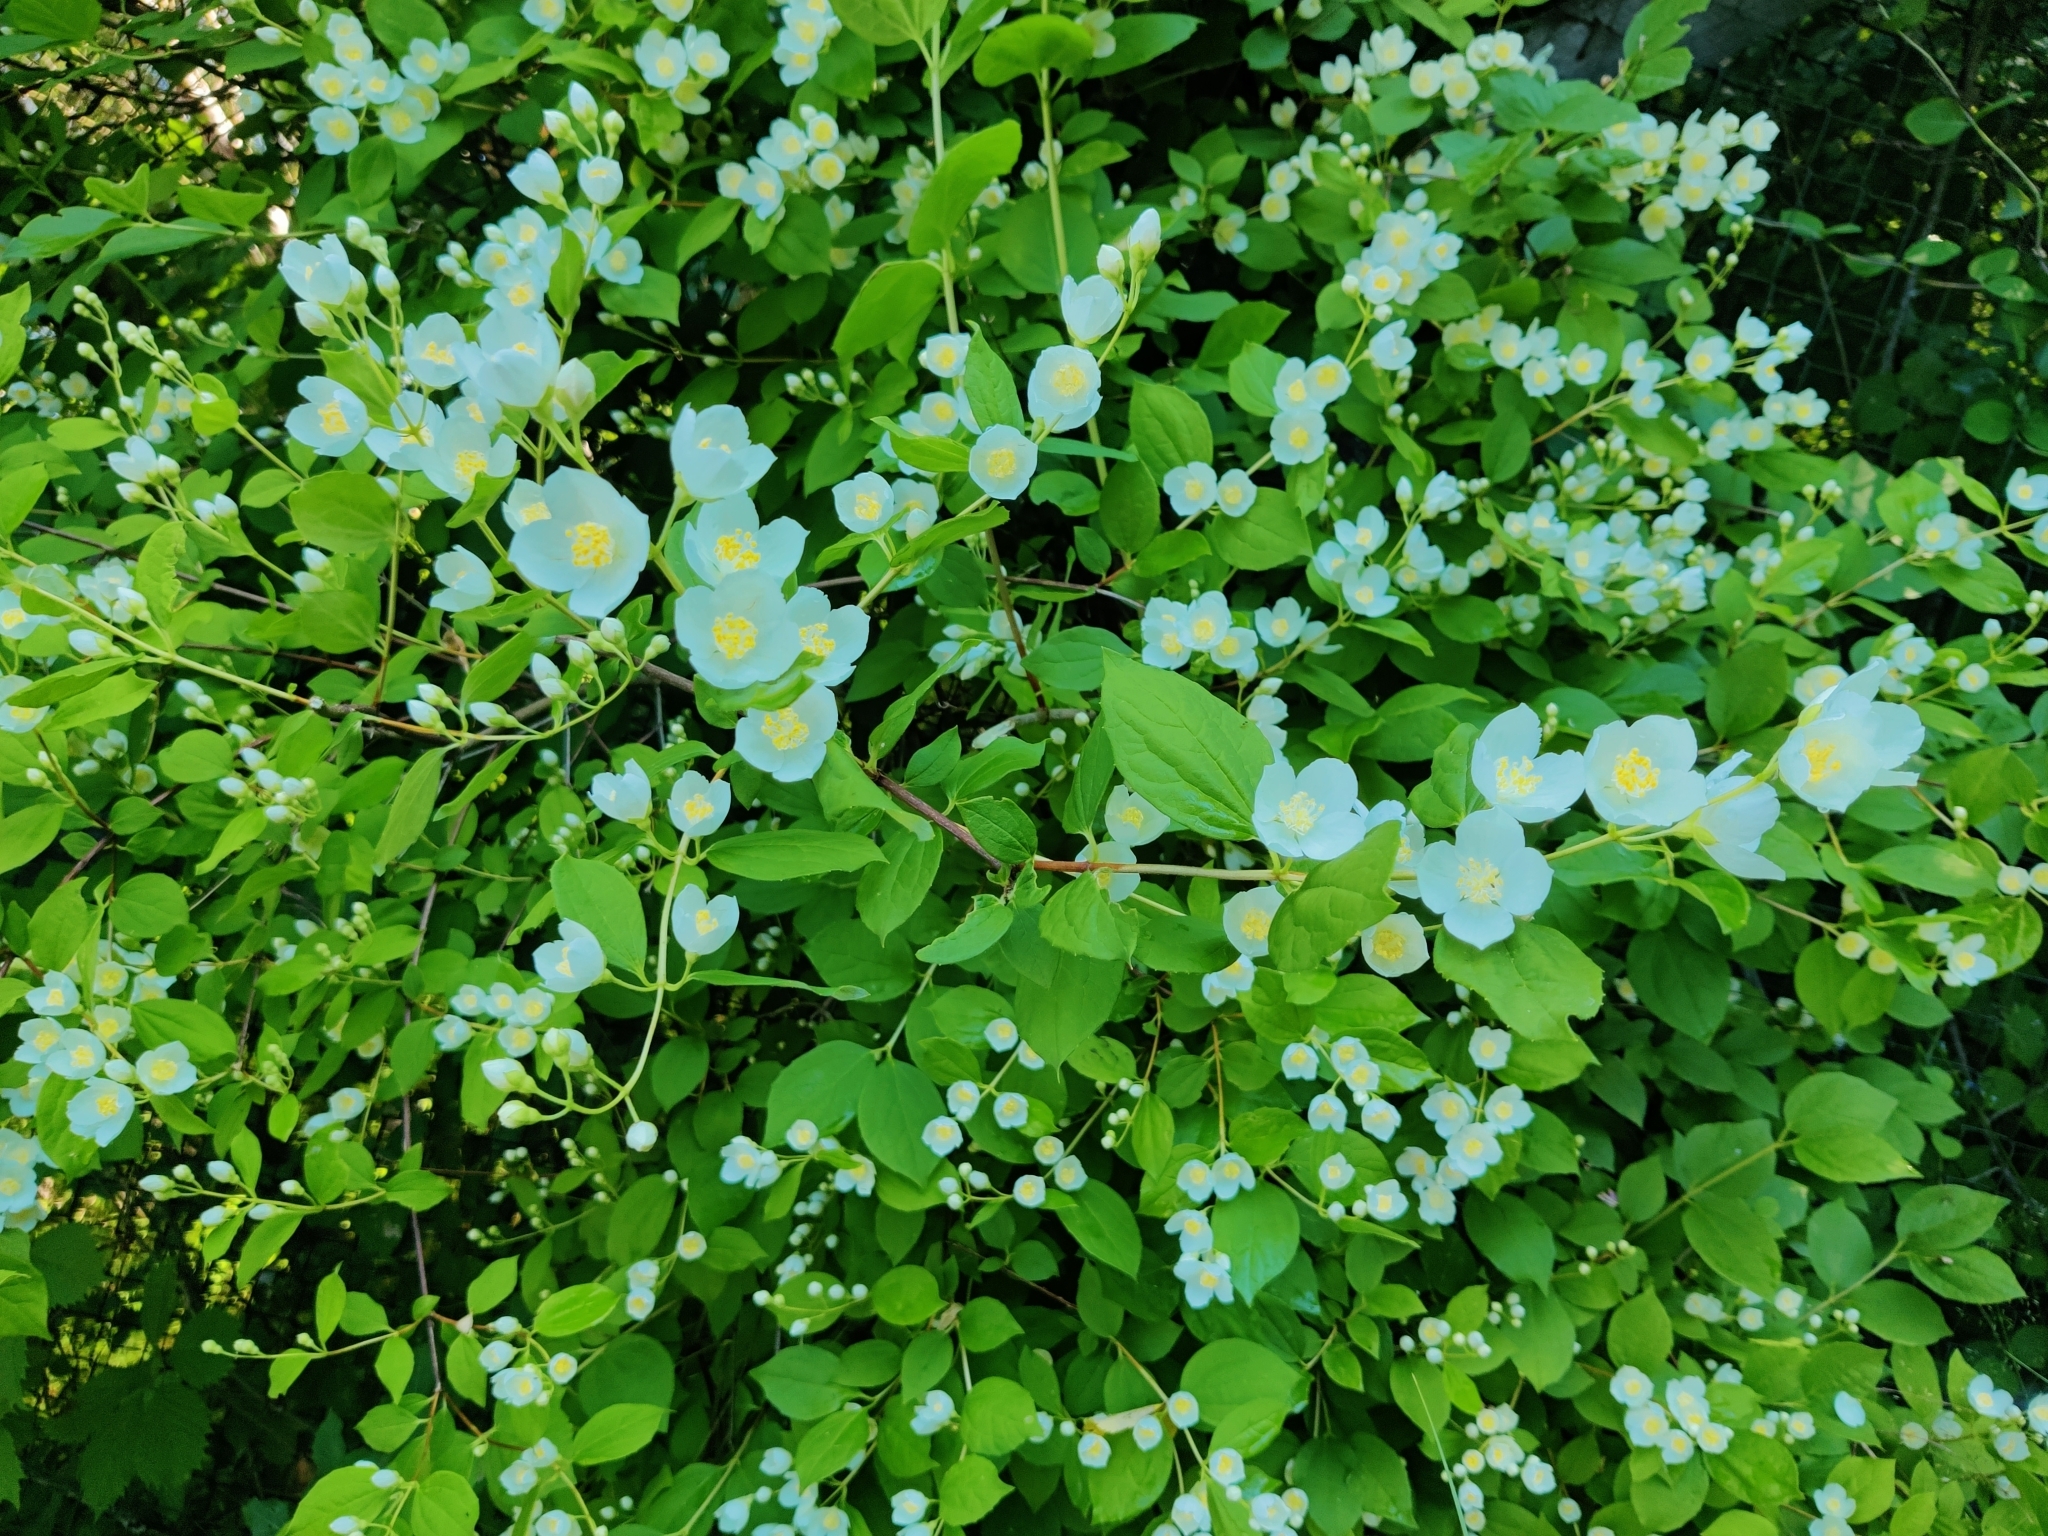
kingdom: Plantae
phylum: Tracheophyta
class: Magnoliopsida
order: Cornales
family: Hydrangeaceae
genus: Philadelphus
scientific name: Philadelphus coronarius
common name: Mock orange
